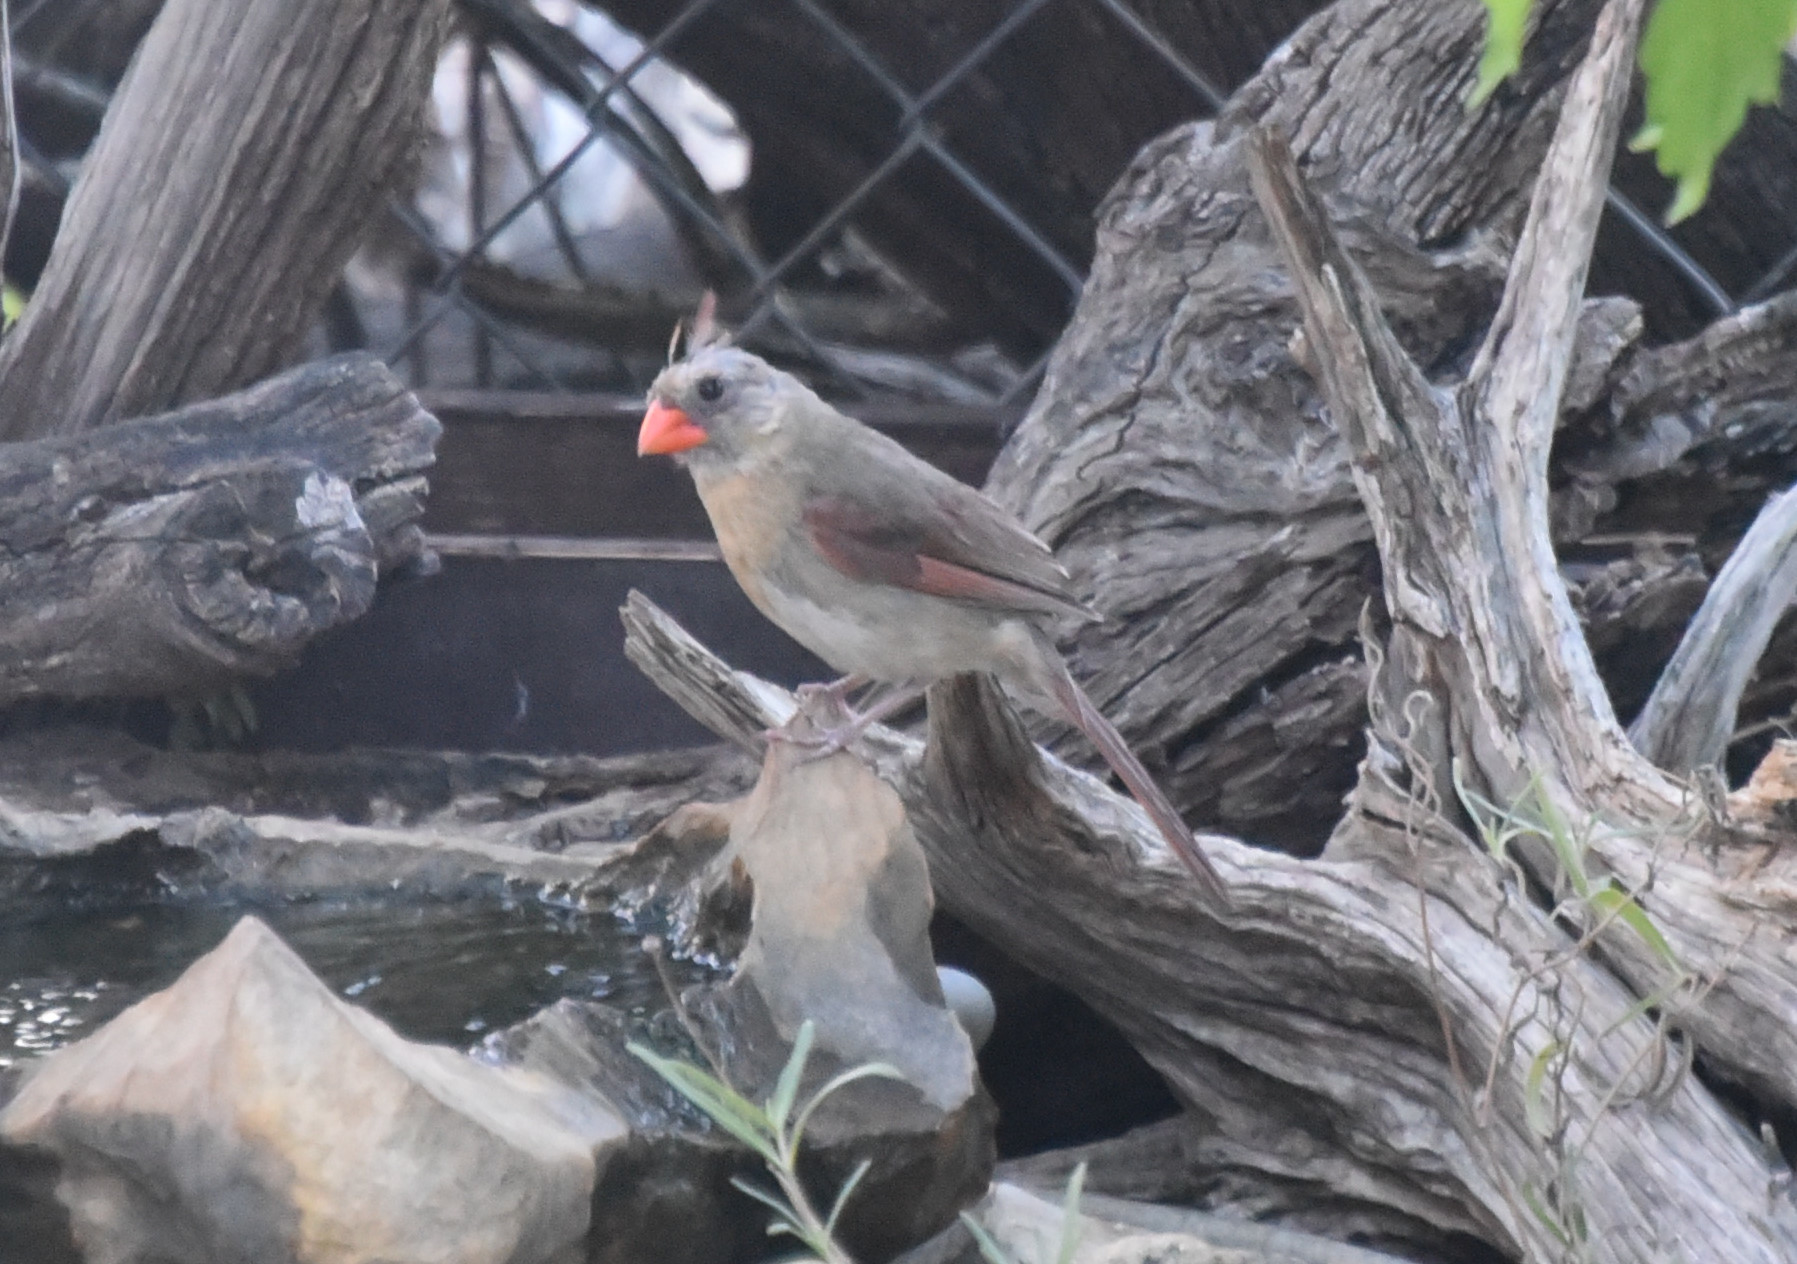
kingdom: Animalia
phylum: Chordata
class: Aves
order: Passeriformes
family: Cardinalidae
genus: Cardinalis
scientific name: Cardinalis cardinalis
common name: Northern cardinal
